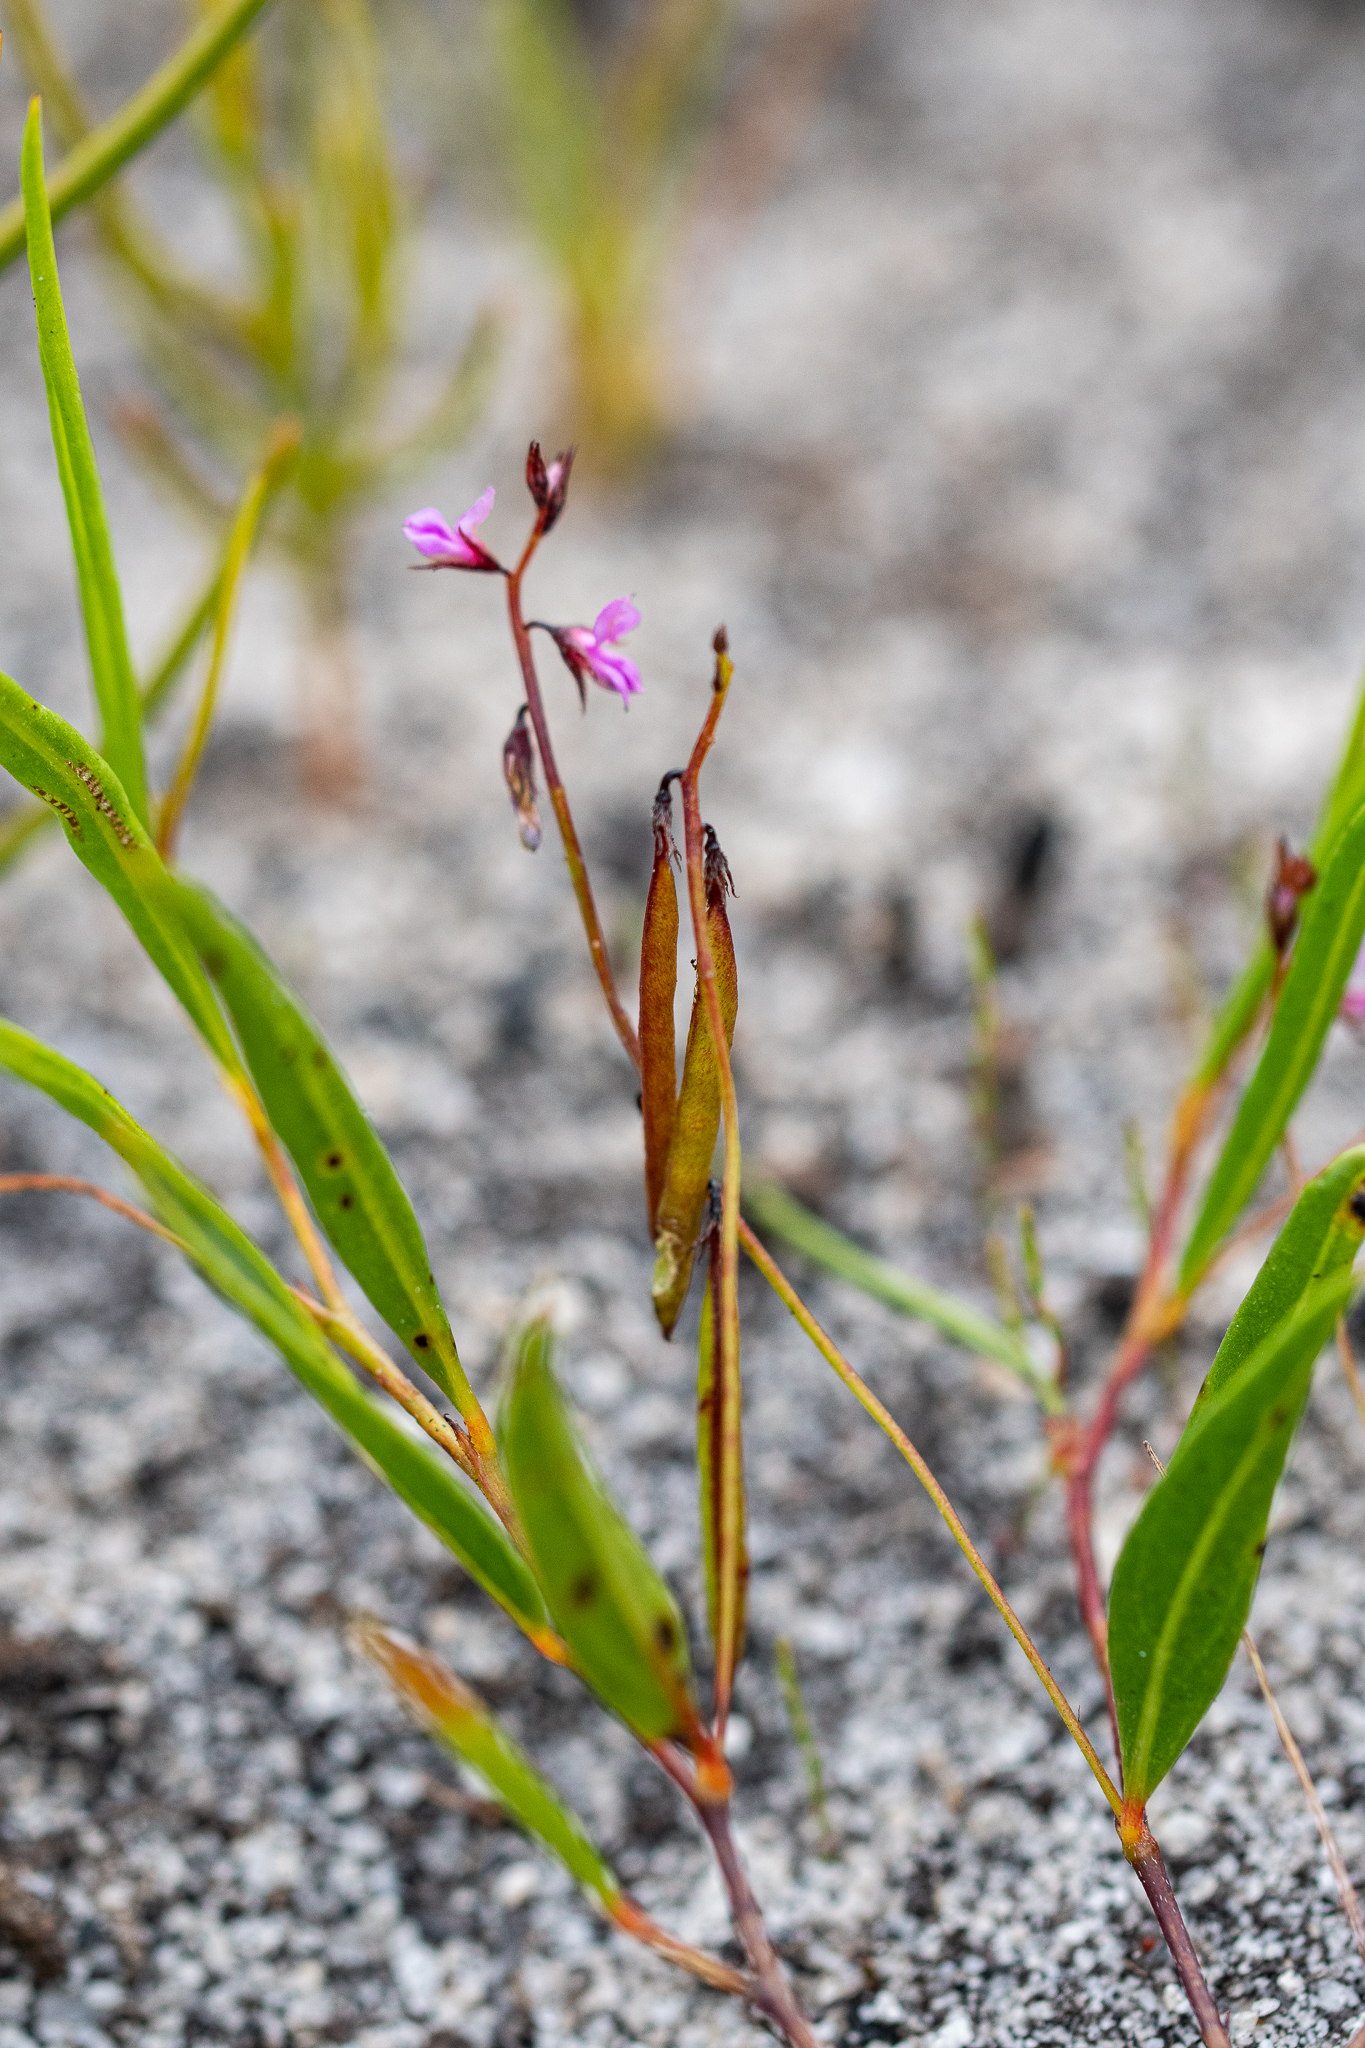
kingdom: Plantae
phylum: Tracheophyta
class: Magnoliopsida
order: Fabales
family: Fabaceae
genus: Indigofera
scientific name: Indigofera guthriei
